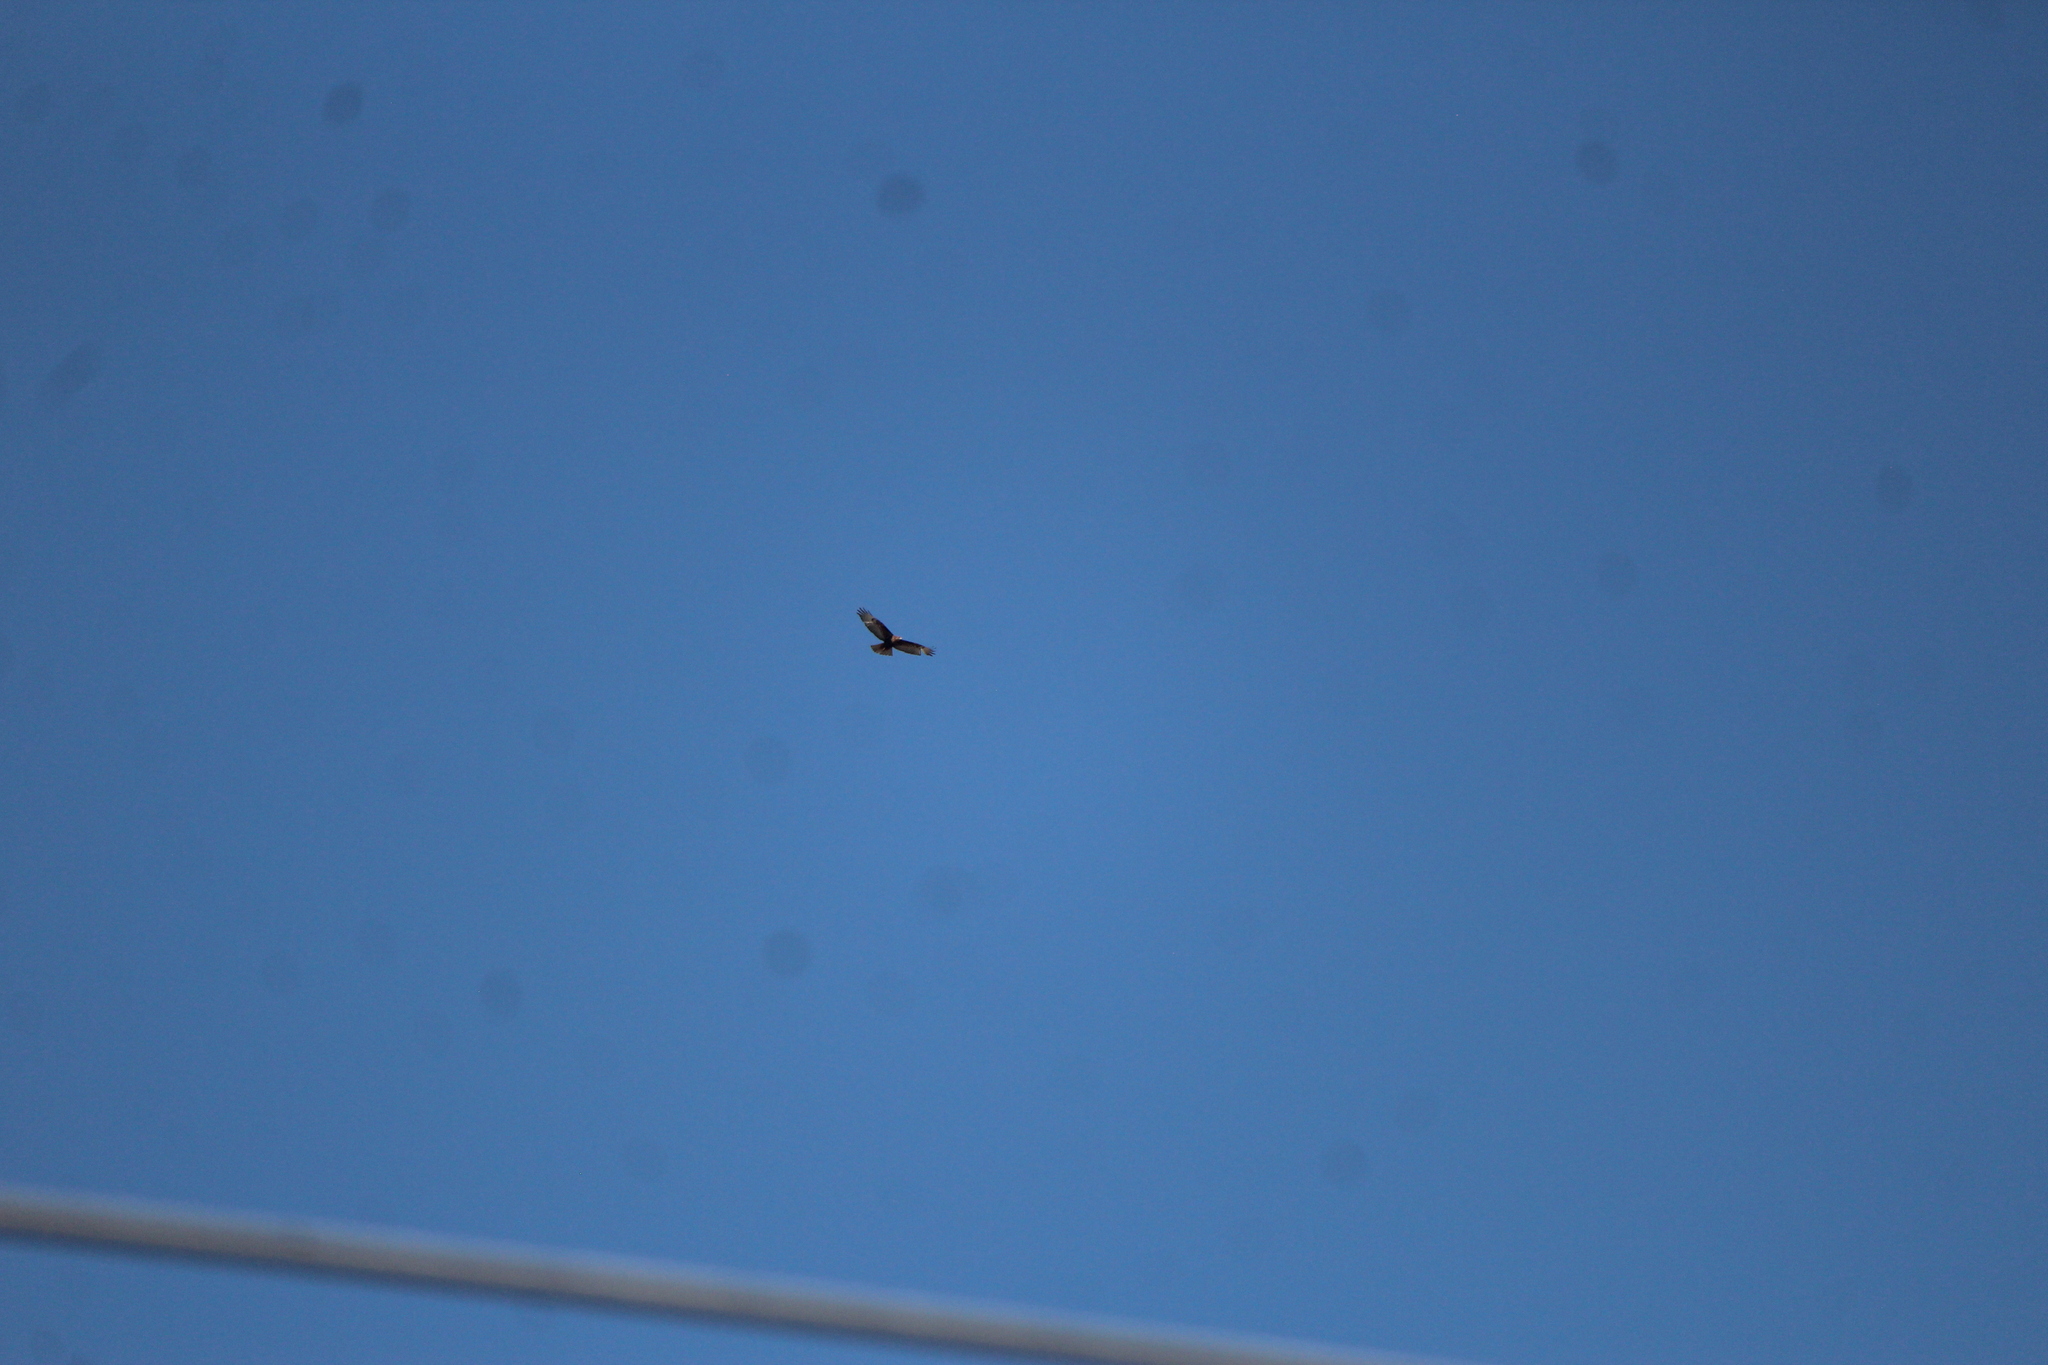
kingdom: Animalia
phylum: Chordata
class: Aves
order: Accipitriformes
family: Accipitridae
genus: Buteo
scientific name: Buteo jamaicensis
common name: Red-tailed hawk
